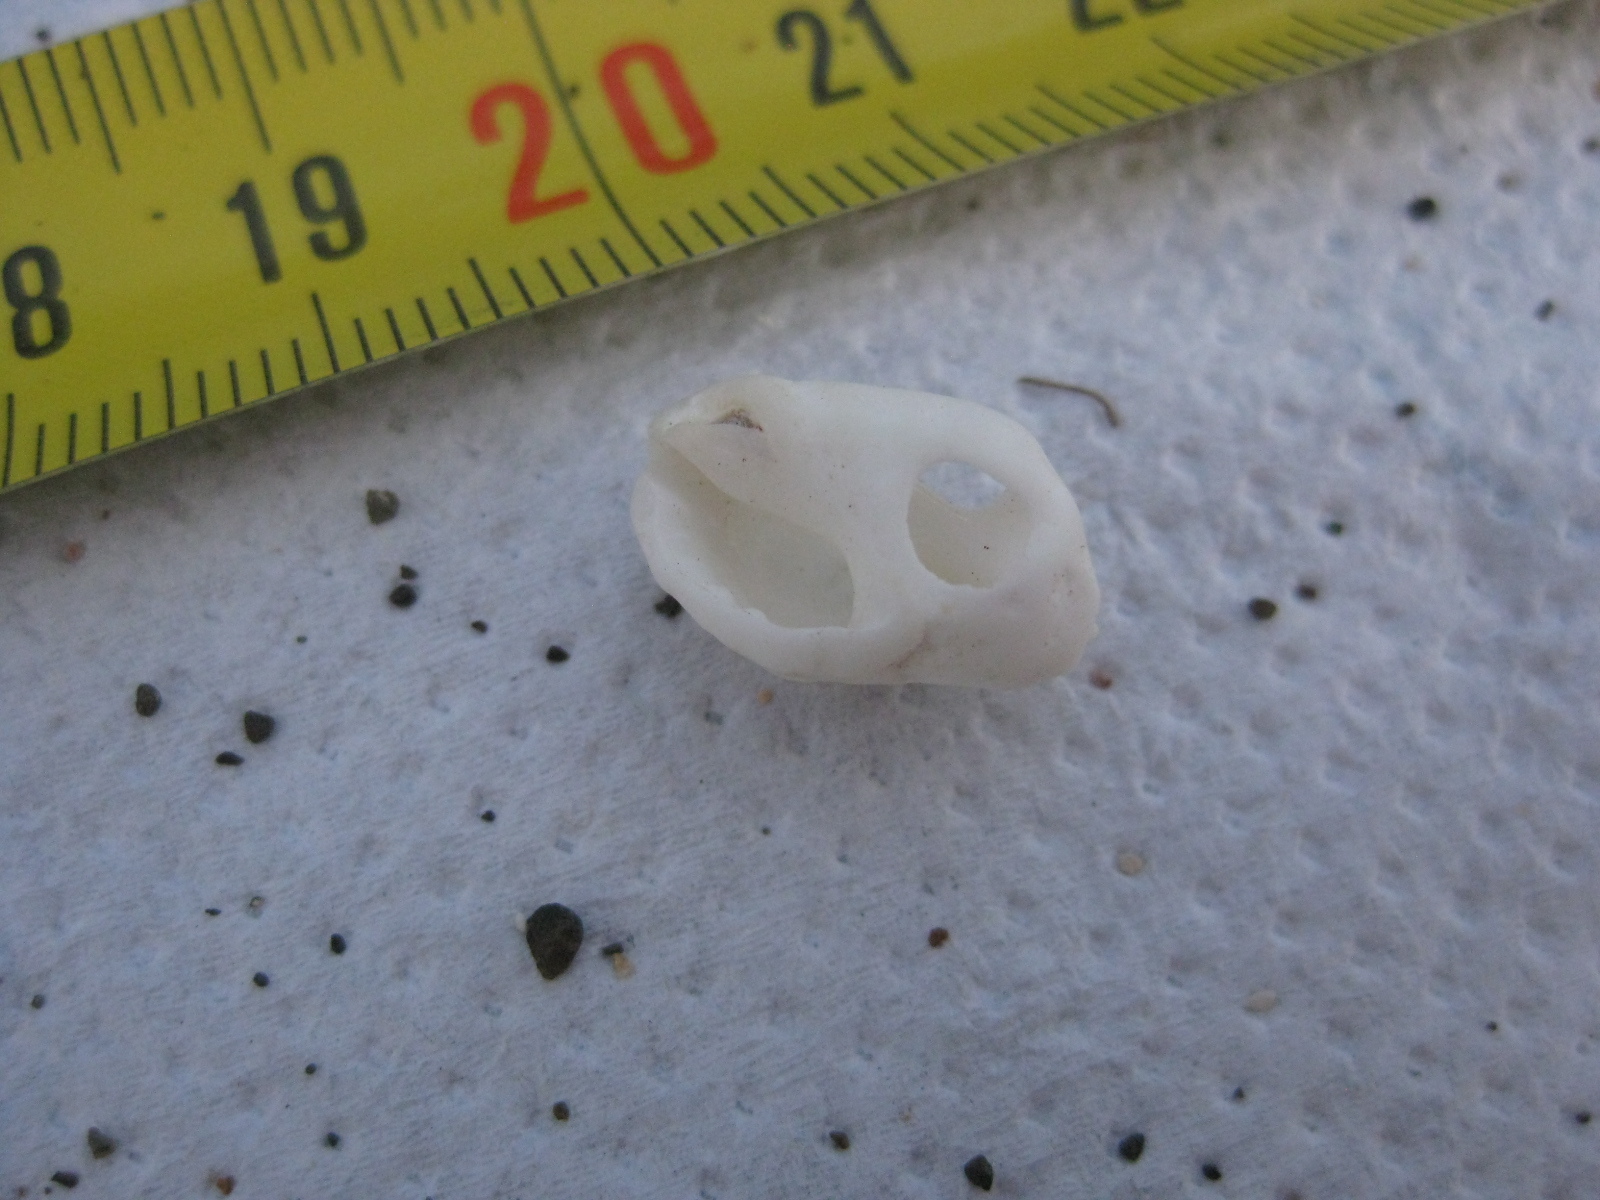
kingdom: Animalia
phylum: Mollusca
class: Gastropoda
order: Neogastropoda
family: Muricidae
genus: Oppomorus
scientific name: Oppomorus noduliferus
